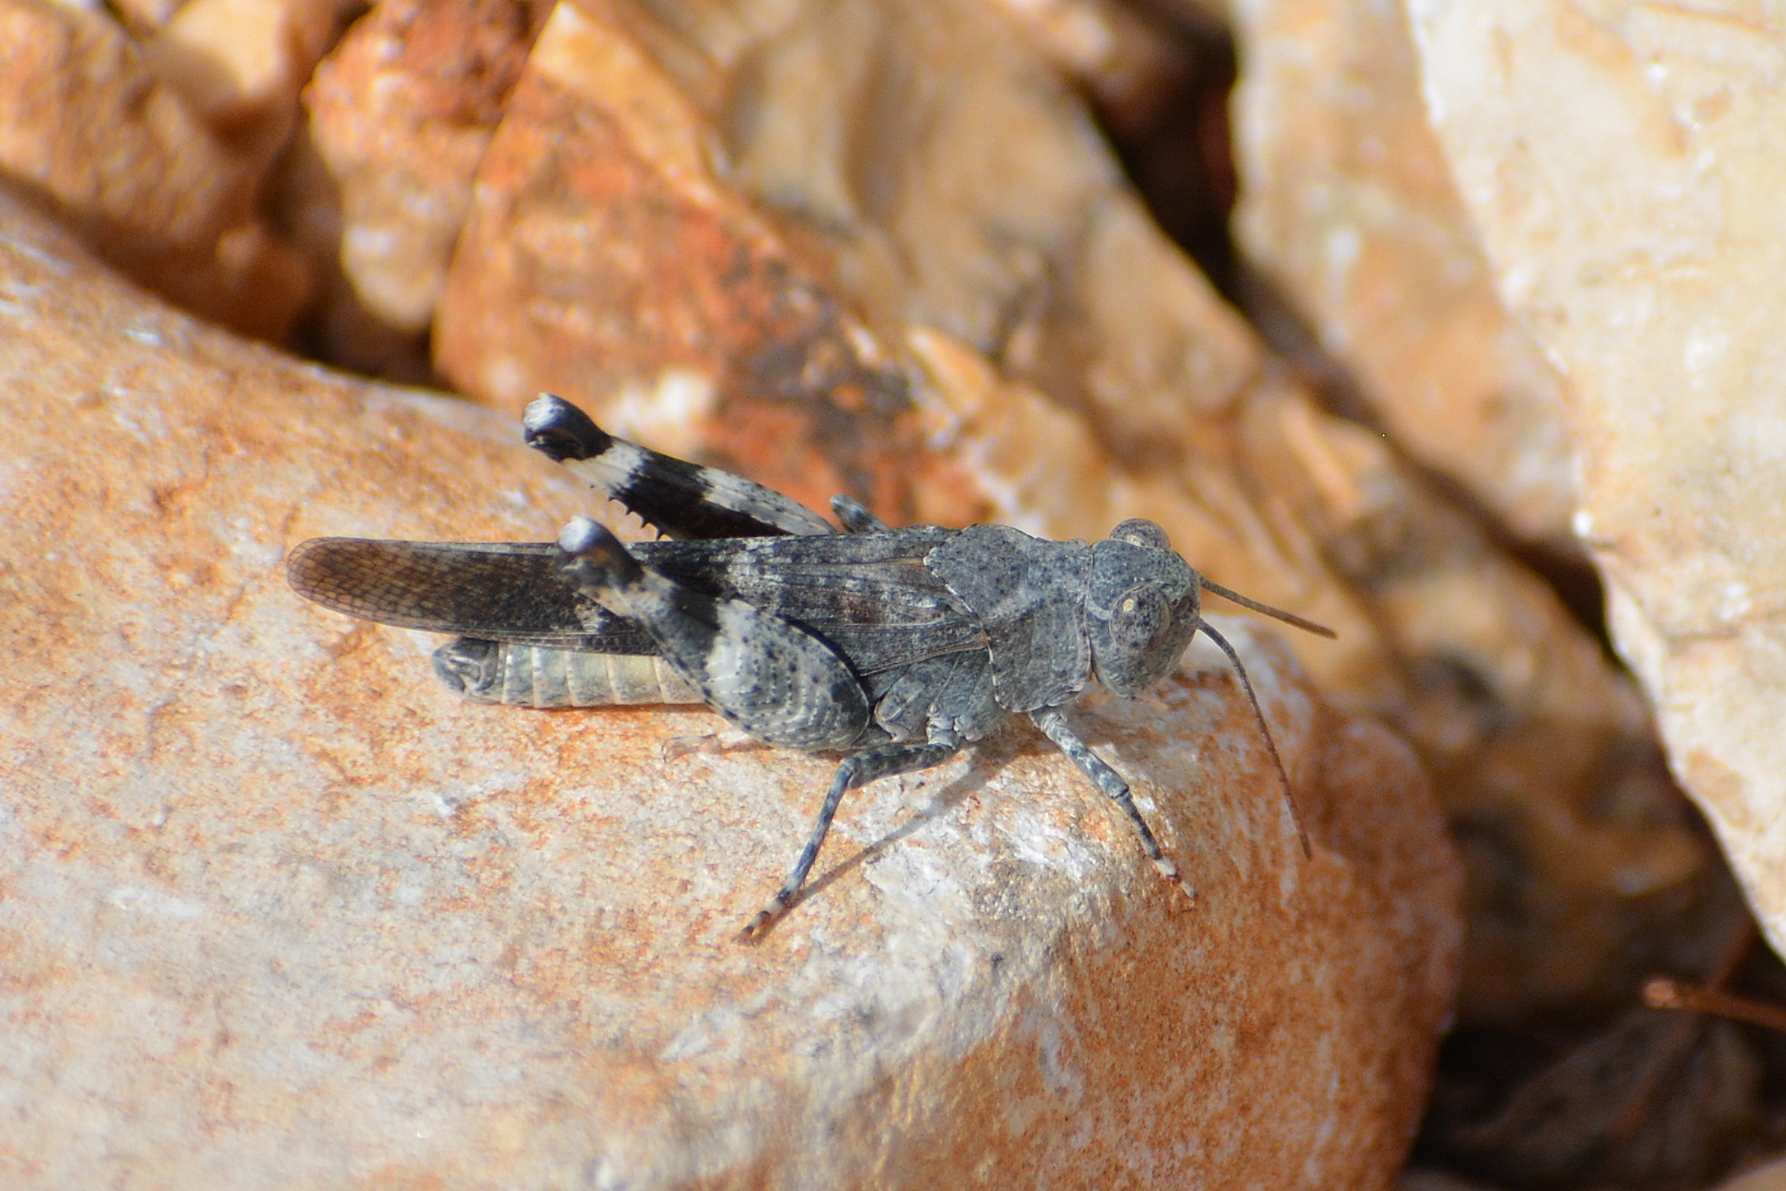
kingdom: Animalia
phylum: Arthropoda
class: Insecta
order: Orthoptera
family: Acrididae
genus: Oedipoda
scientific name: Oedipoda germanica
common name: Red band-winged grasshopper
